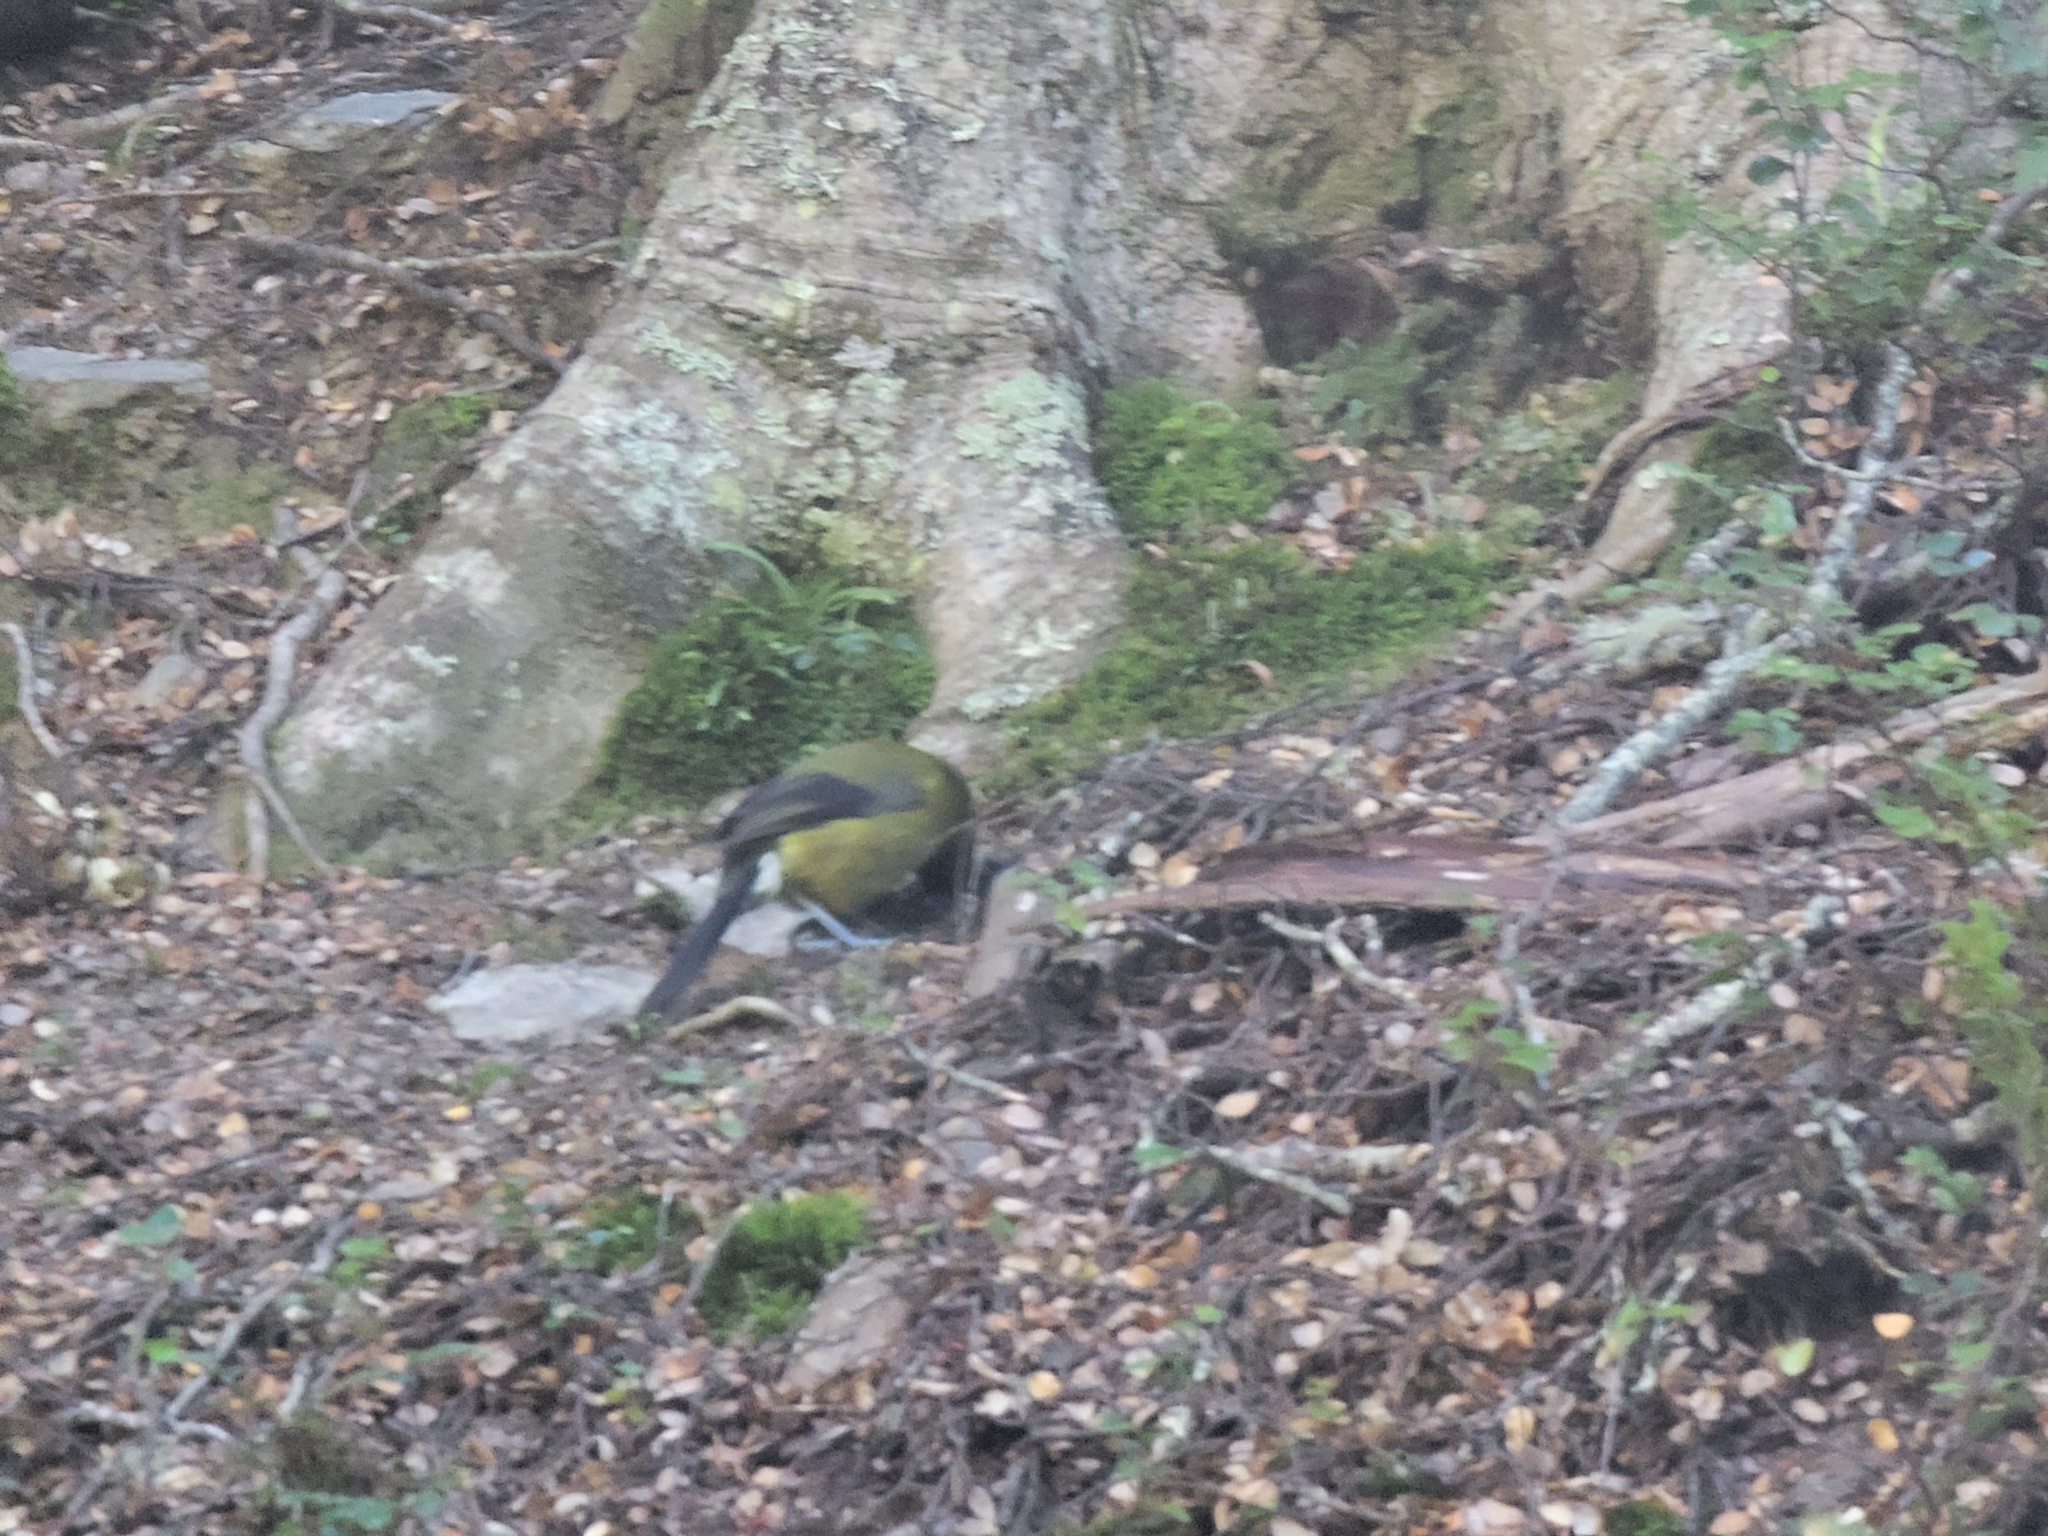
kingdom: Animalia
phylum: Chordata
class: Aves
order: Passeriformes
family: Meliphagidae
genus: Anthornis
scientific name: Anthornis melanura
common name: New zealand bellbird
